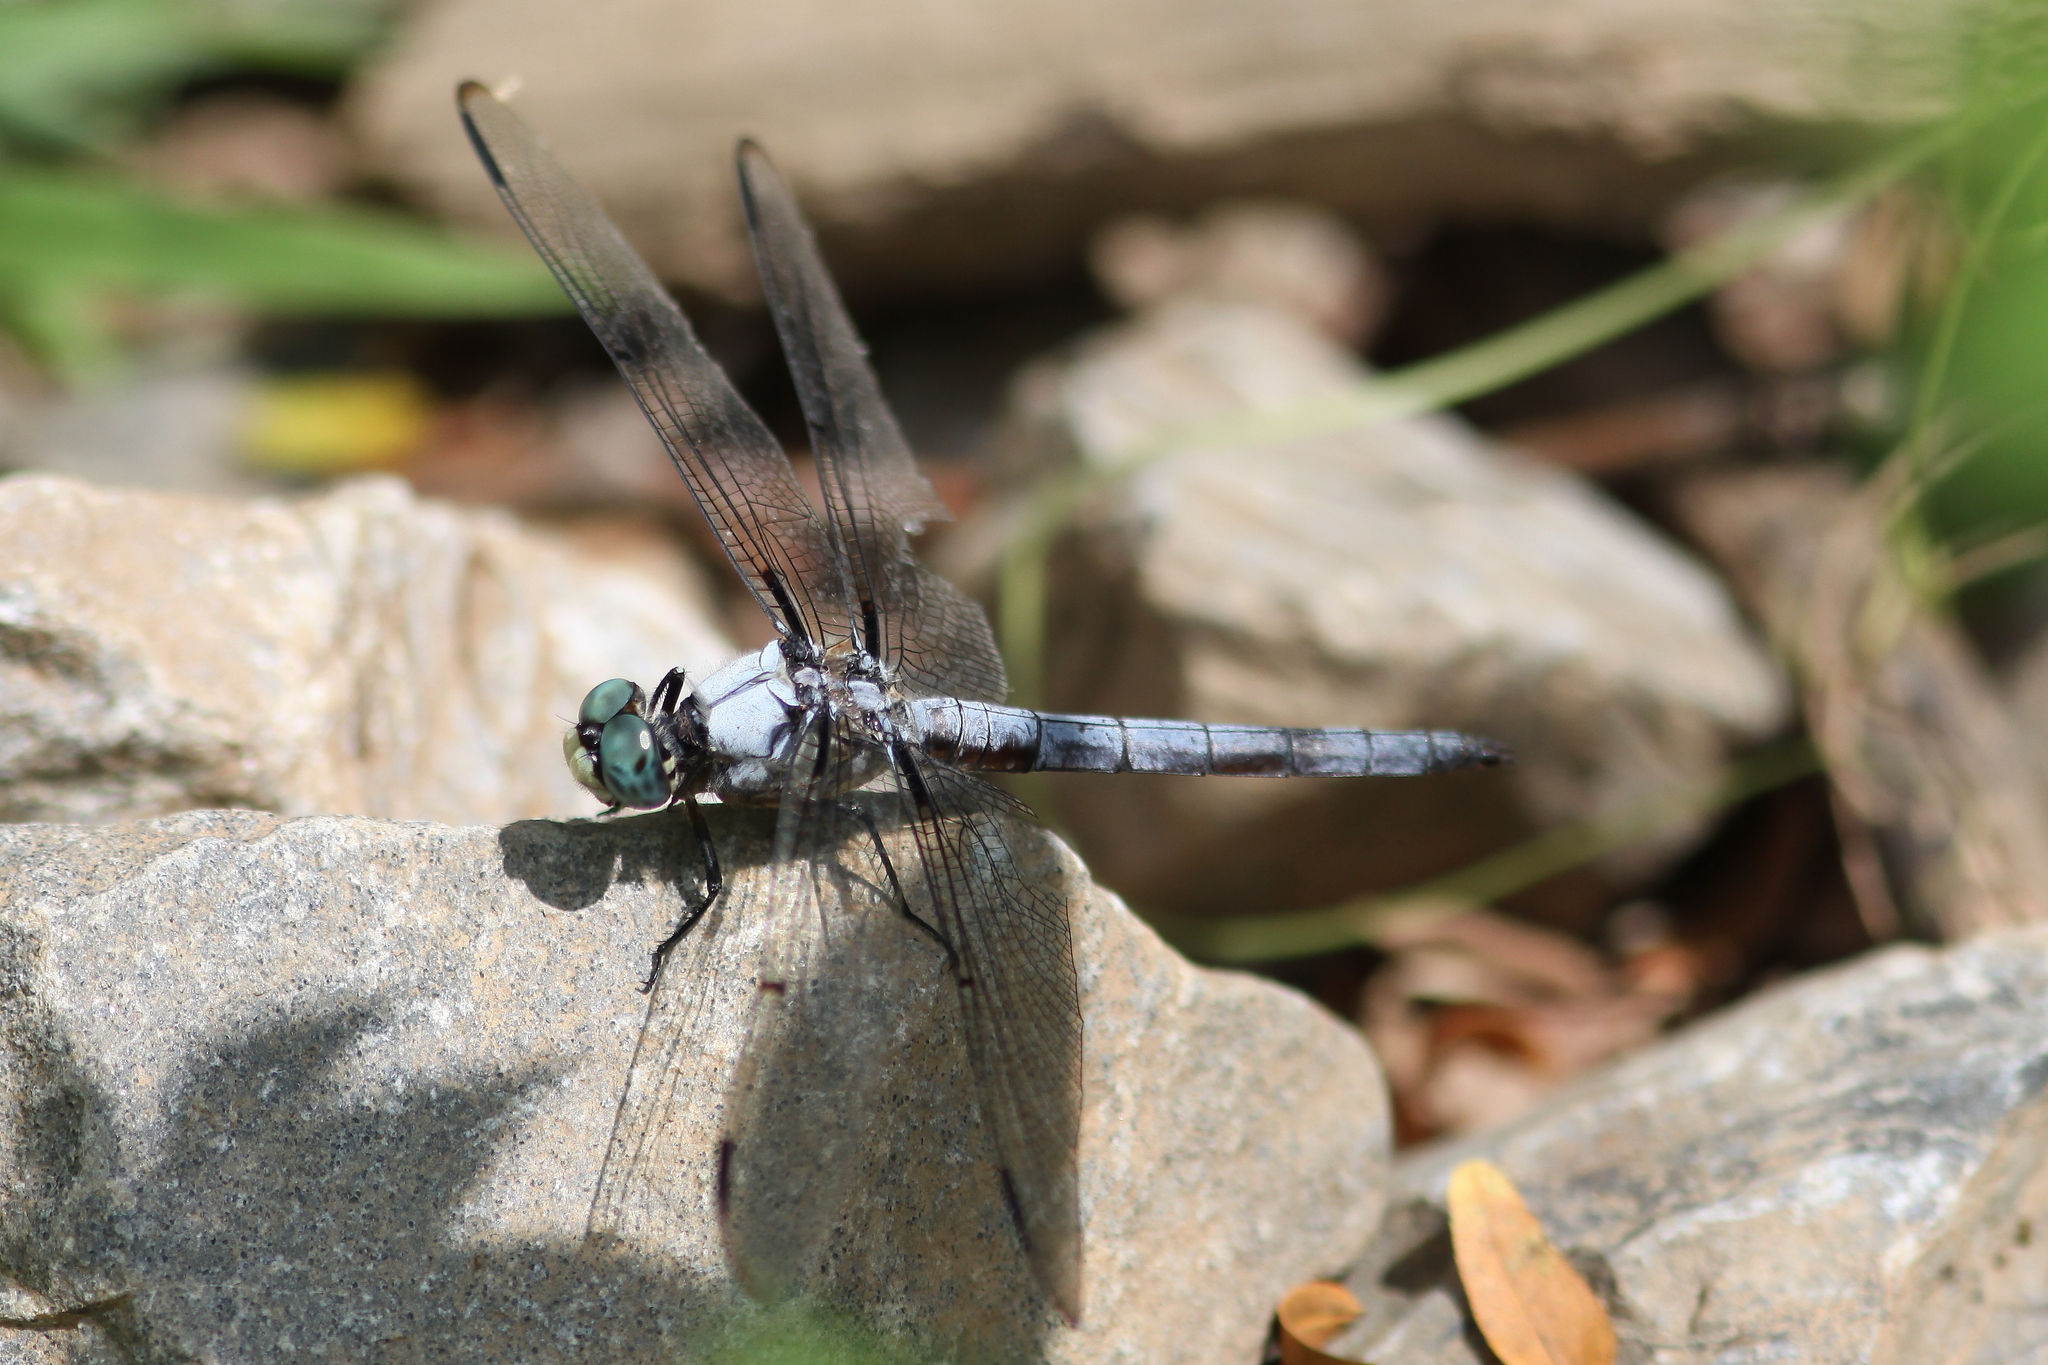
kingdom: Animalia
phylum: Arthropoda
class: Insecta
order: Odonata
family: Libellulidae
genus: Libellula
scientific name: Libellula vibrans
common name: Great blue skimmer
